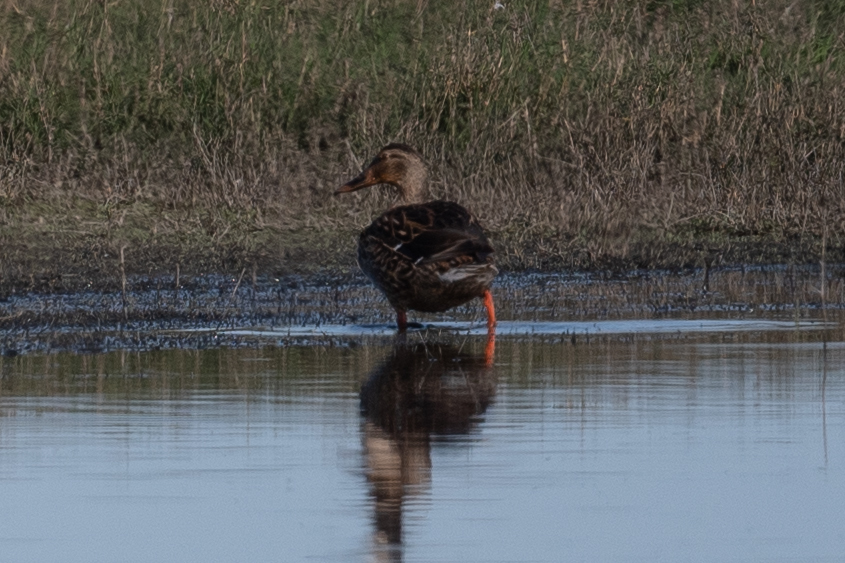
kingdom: Animalia
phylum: Chordata
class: Aves
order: Anseriformes
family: Anatidae
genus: Anas
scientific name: Anas platyrhynchos
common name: Mallard
